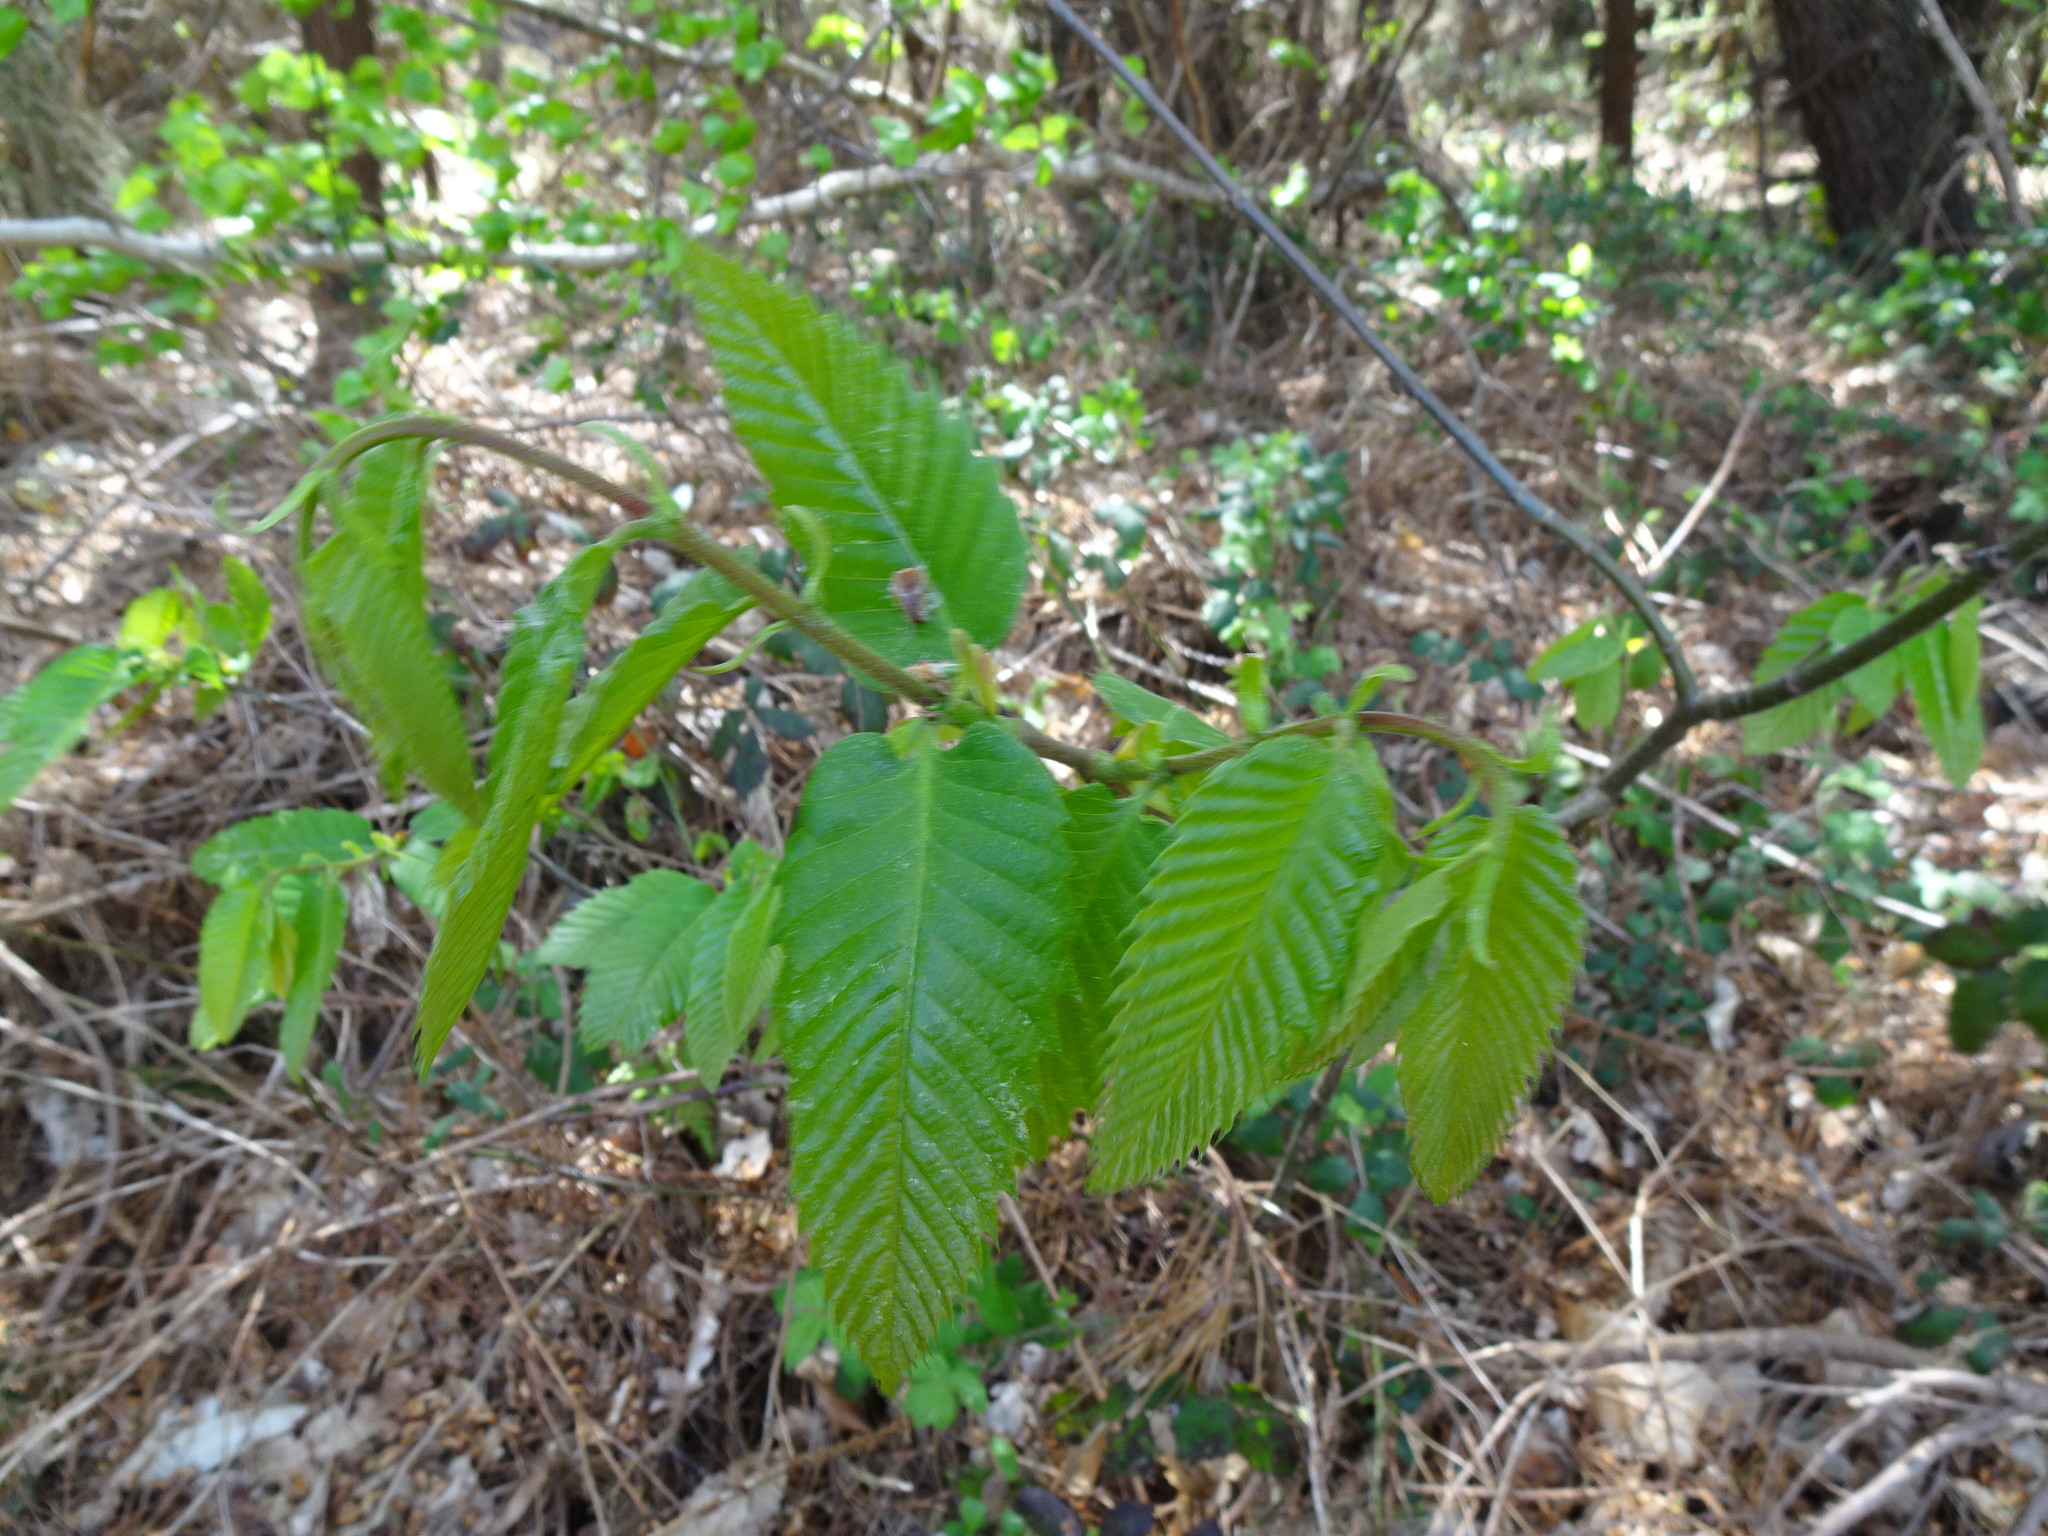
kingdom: Plantae
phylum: Tracheophyta
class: Magnoliopsida
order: Fagales
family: Fagaceae
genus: Castanea
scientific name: Castanea sativa
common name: Sweet chestnut
